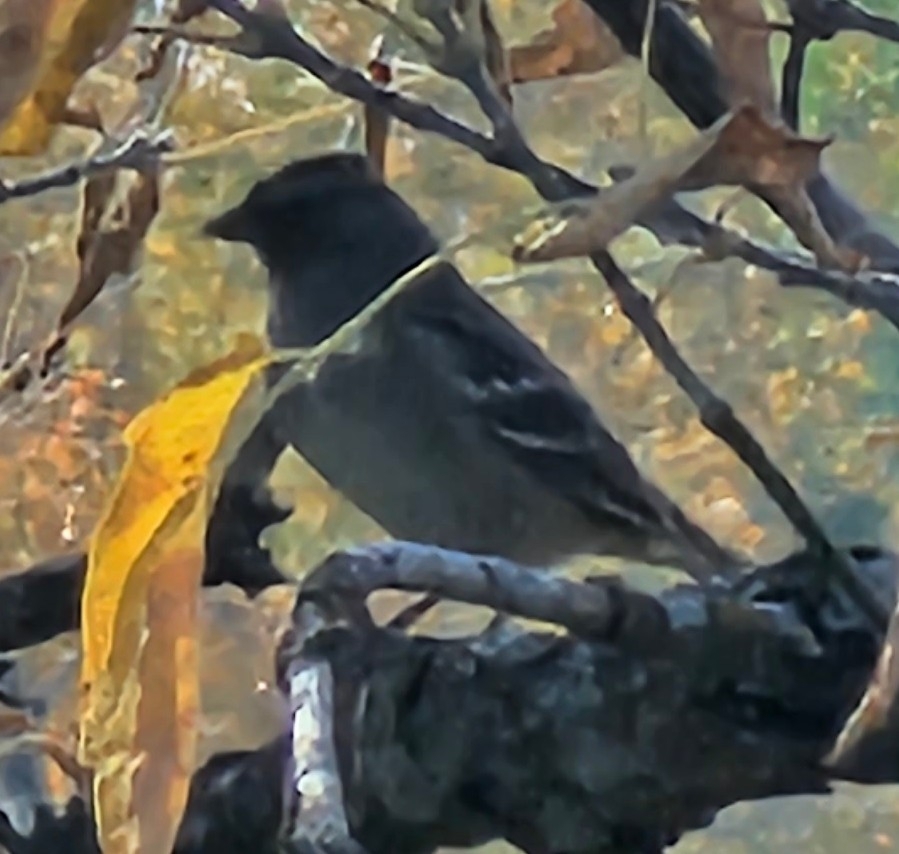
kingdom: Animalia
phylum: Chordata
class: Aves
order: Passeriformes
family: Passerellidae
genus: Zonotrichia
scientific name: Zonotrichia leucophrys
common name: White-crowned sparrow
